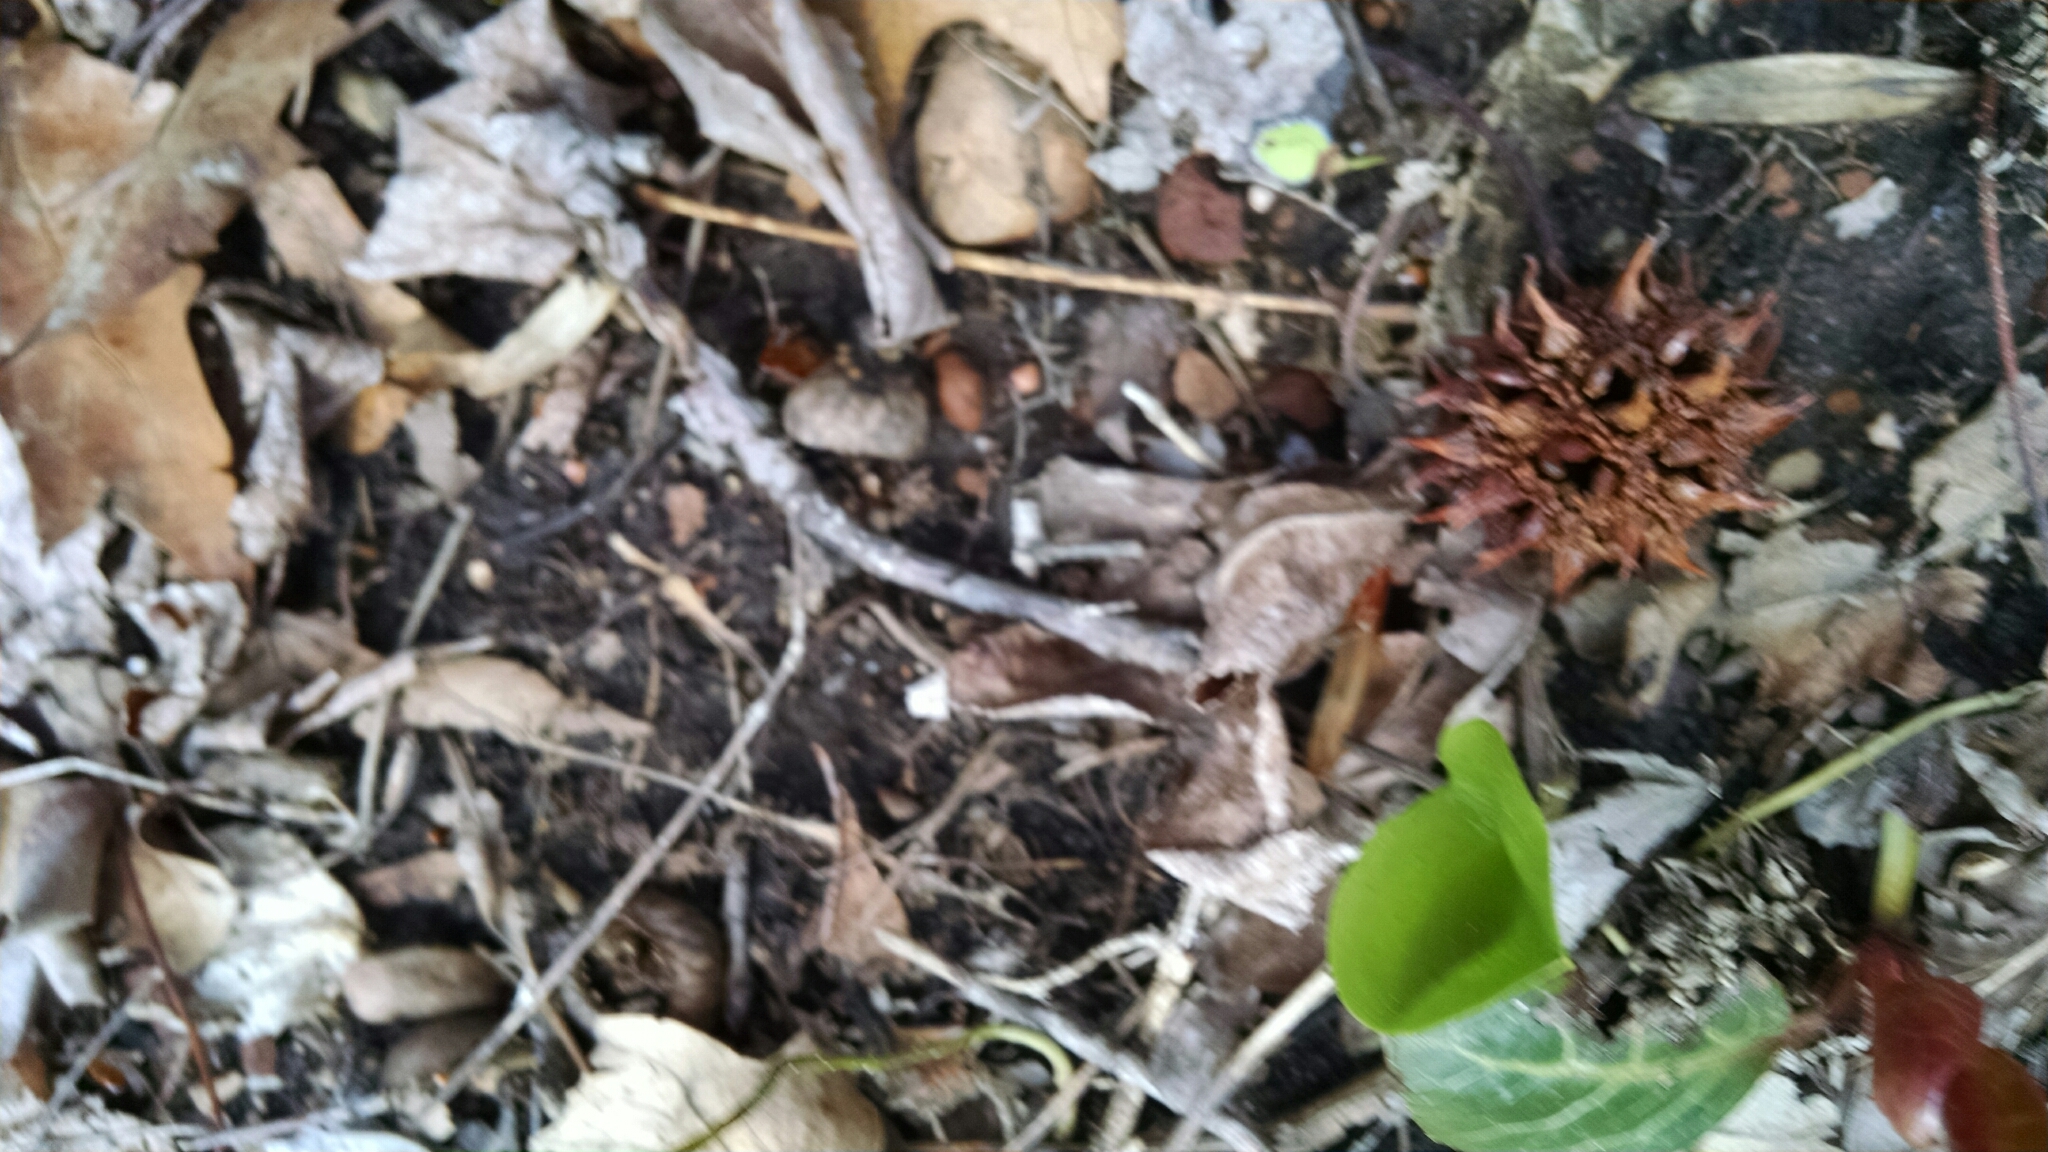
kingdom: Plantae
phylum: Tracheophyta
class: Magnoliopsida
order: Ericales
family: Ericaceae
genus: Pyrola
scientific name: Pyrola americana
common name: American wintergreen
